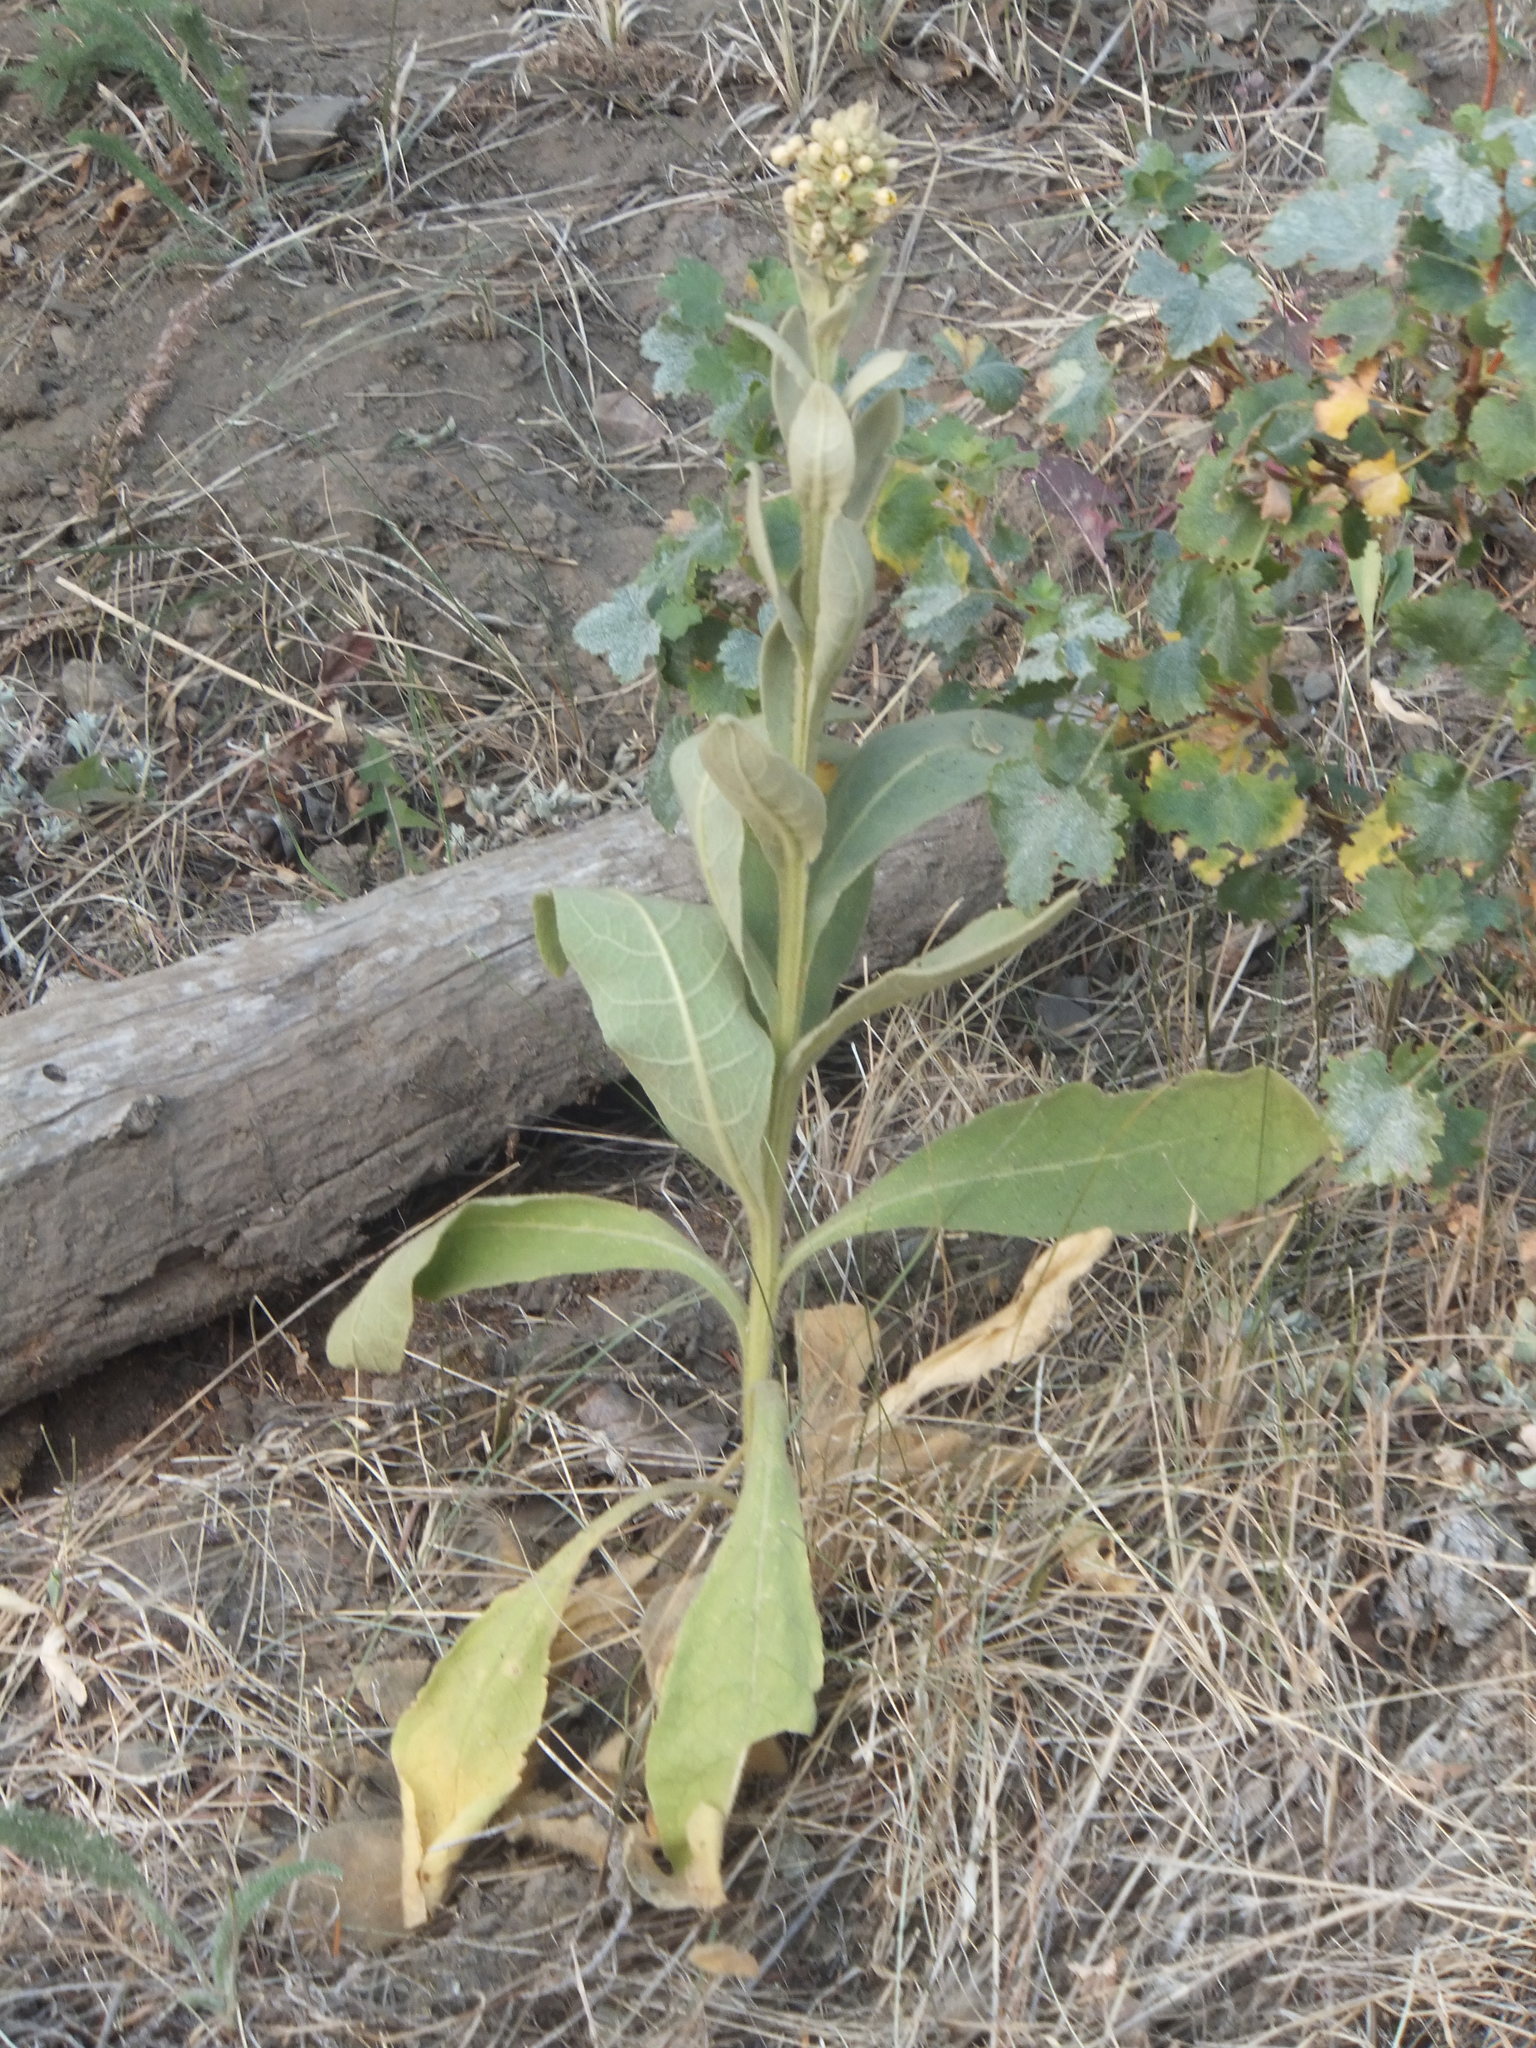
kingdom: Plantae
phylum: Tracheophyta
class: Magnoliopsida
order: Lamiales
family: Scrophulariaceae
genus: Verbascum
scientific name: Verbascum thapsus
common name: Common mullein
